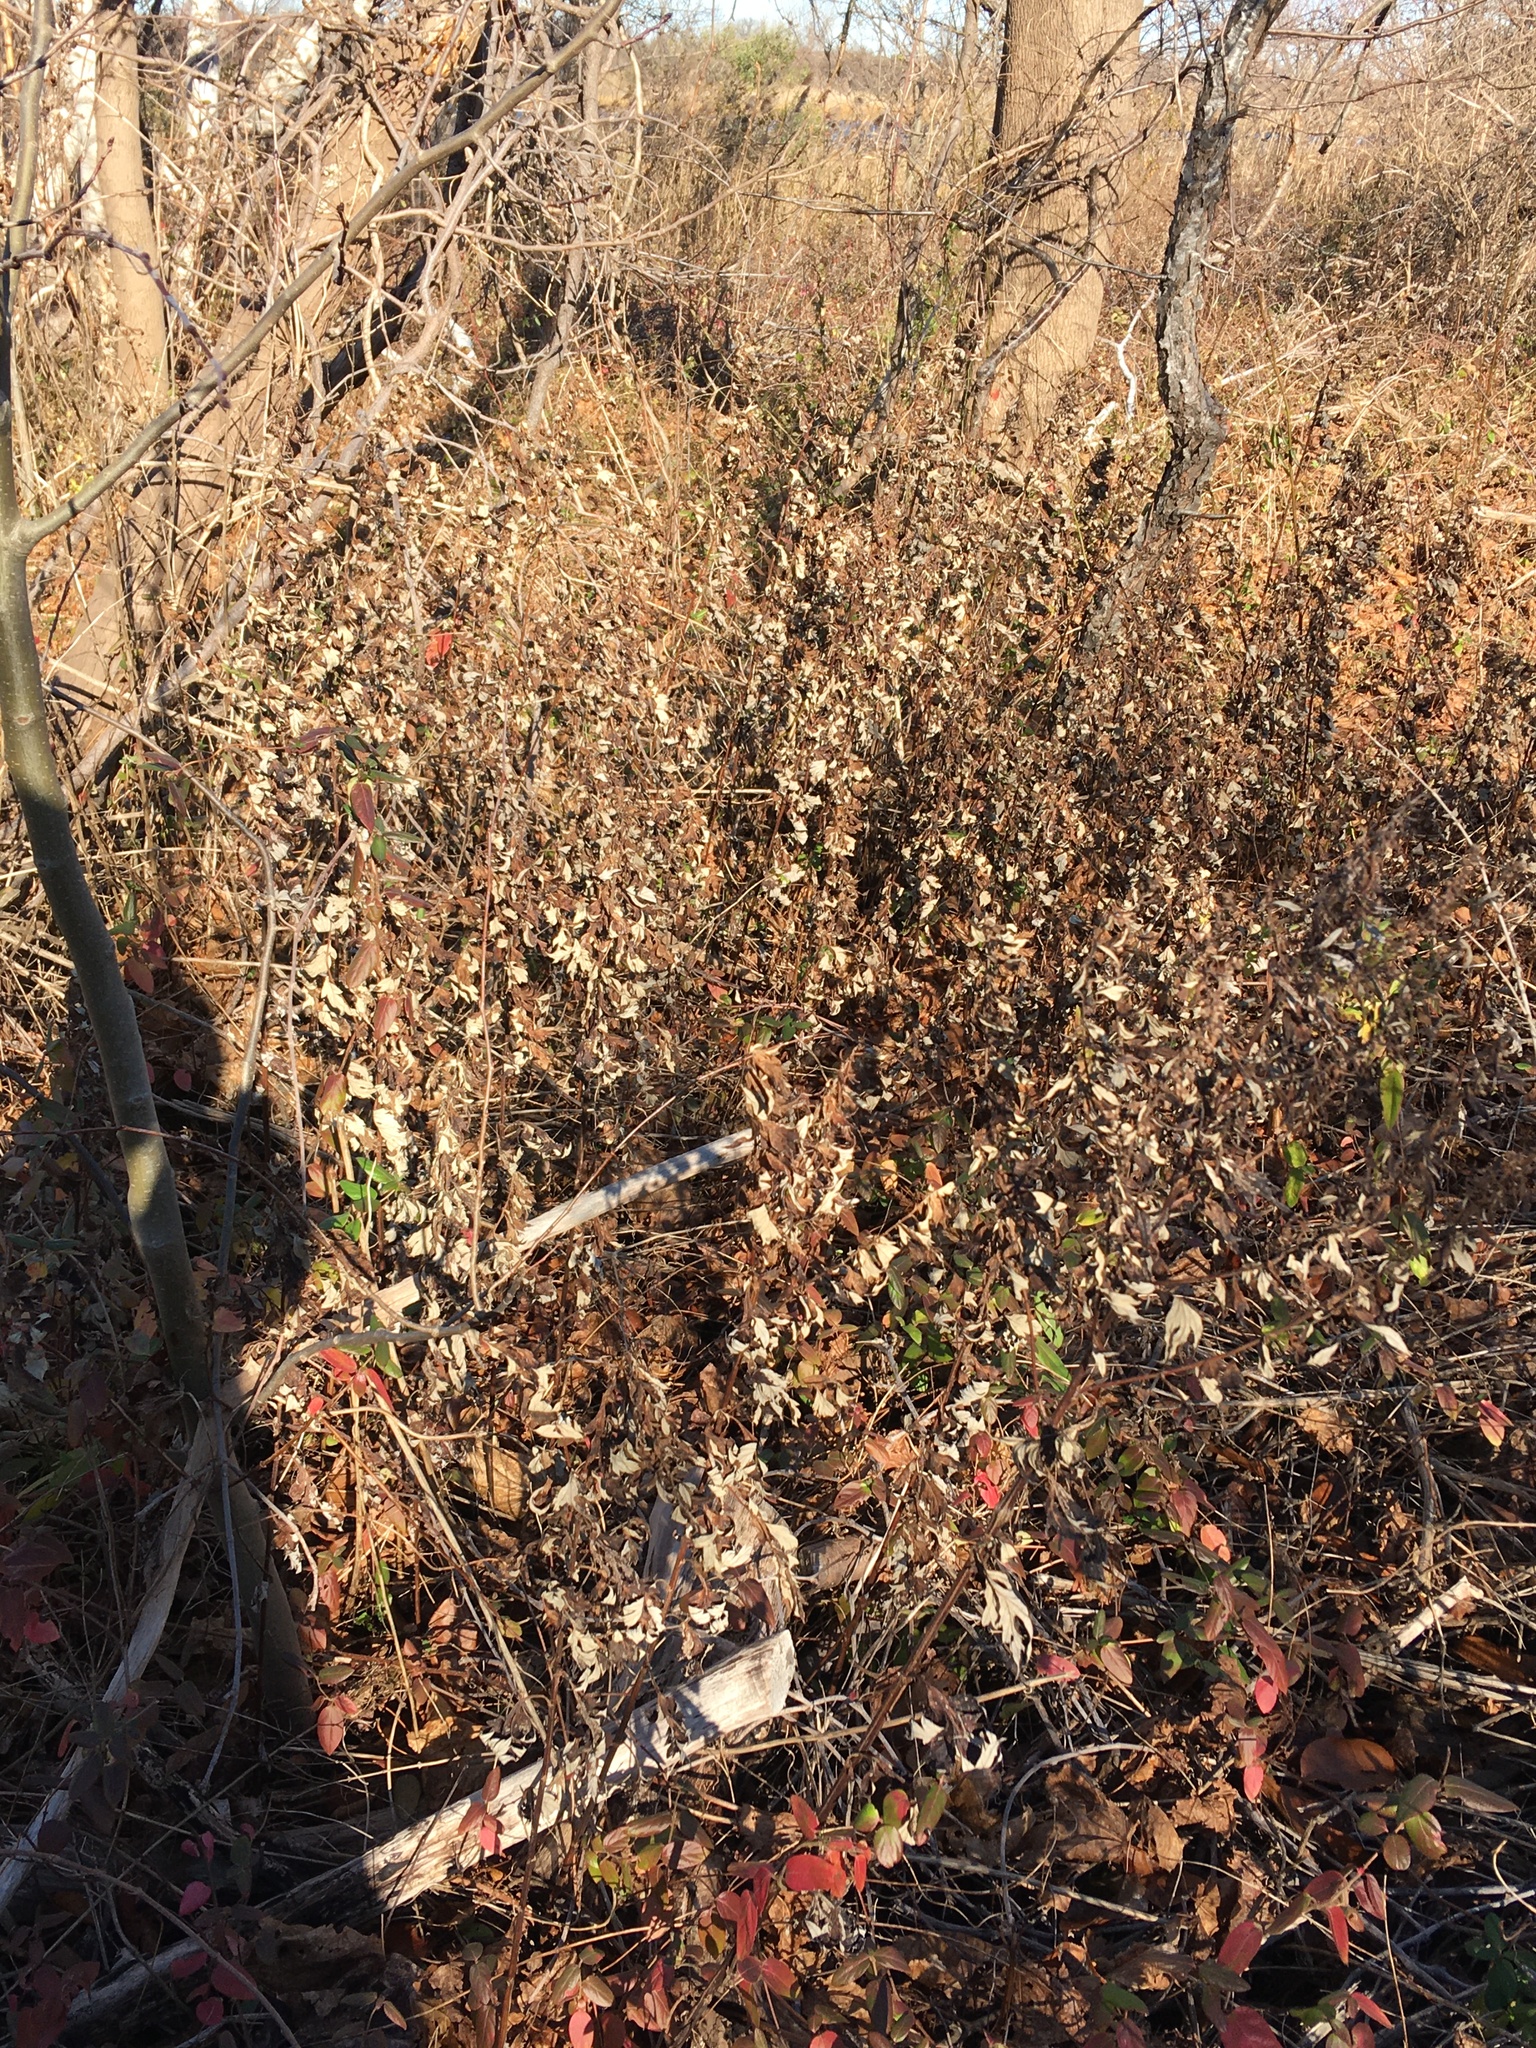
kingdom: Plantae
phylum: Tracheophyta
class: Magnoliopsida
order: Asterales
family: Asteraceae
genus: Artemisia
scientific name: Artemisia vulgaris
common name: Mugwort
